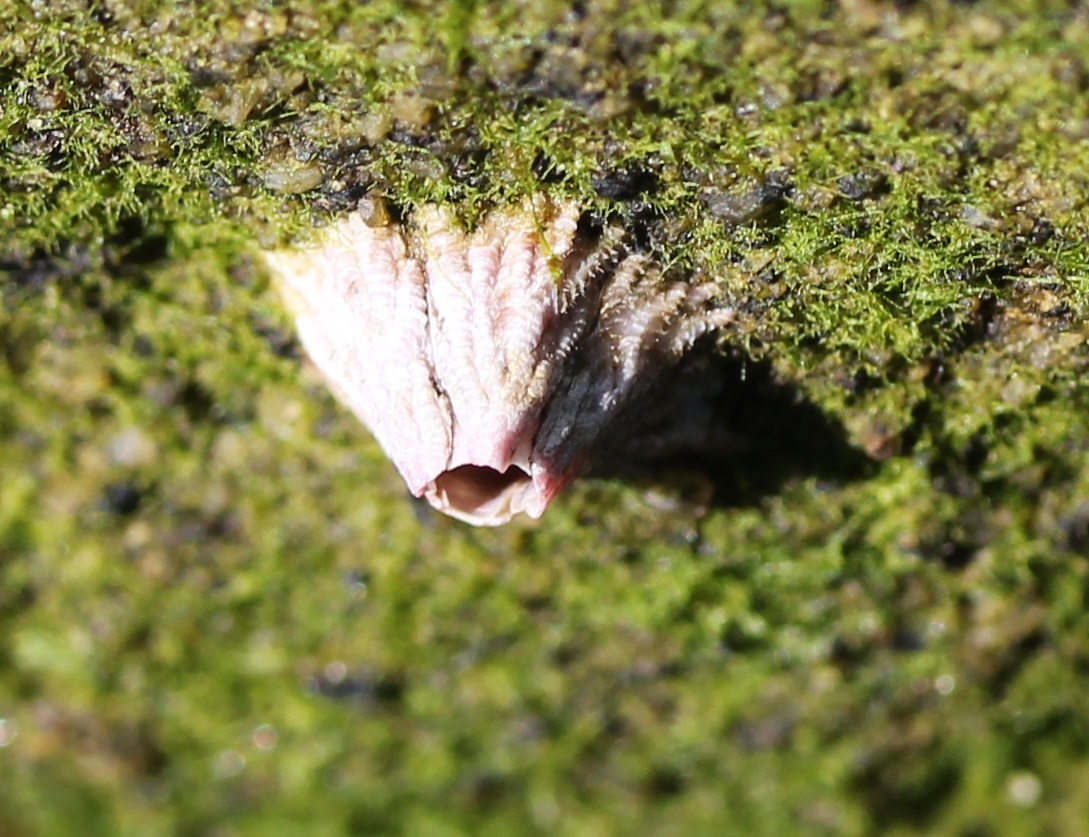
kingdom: Animalia
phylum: Arthropoda
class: Maxillopoda
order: Sessilia
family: Tetraclitidae
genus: Tetraclita
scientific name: Tetraclita rubescens
